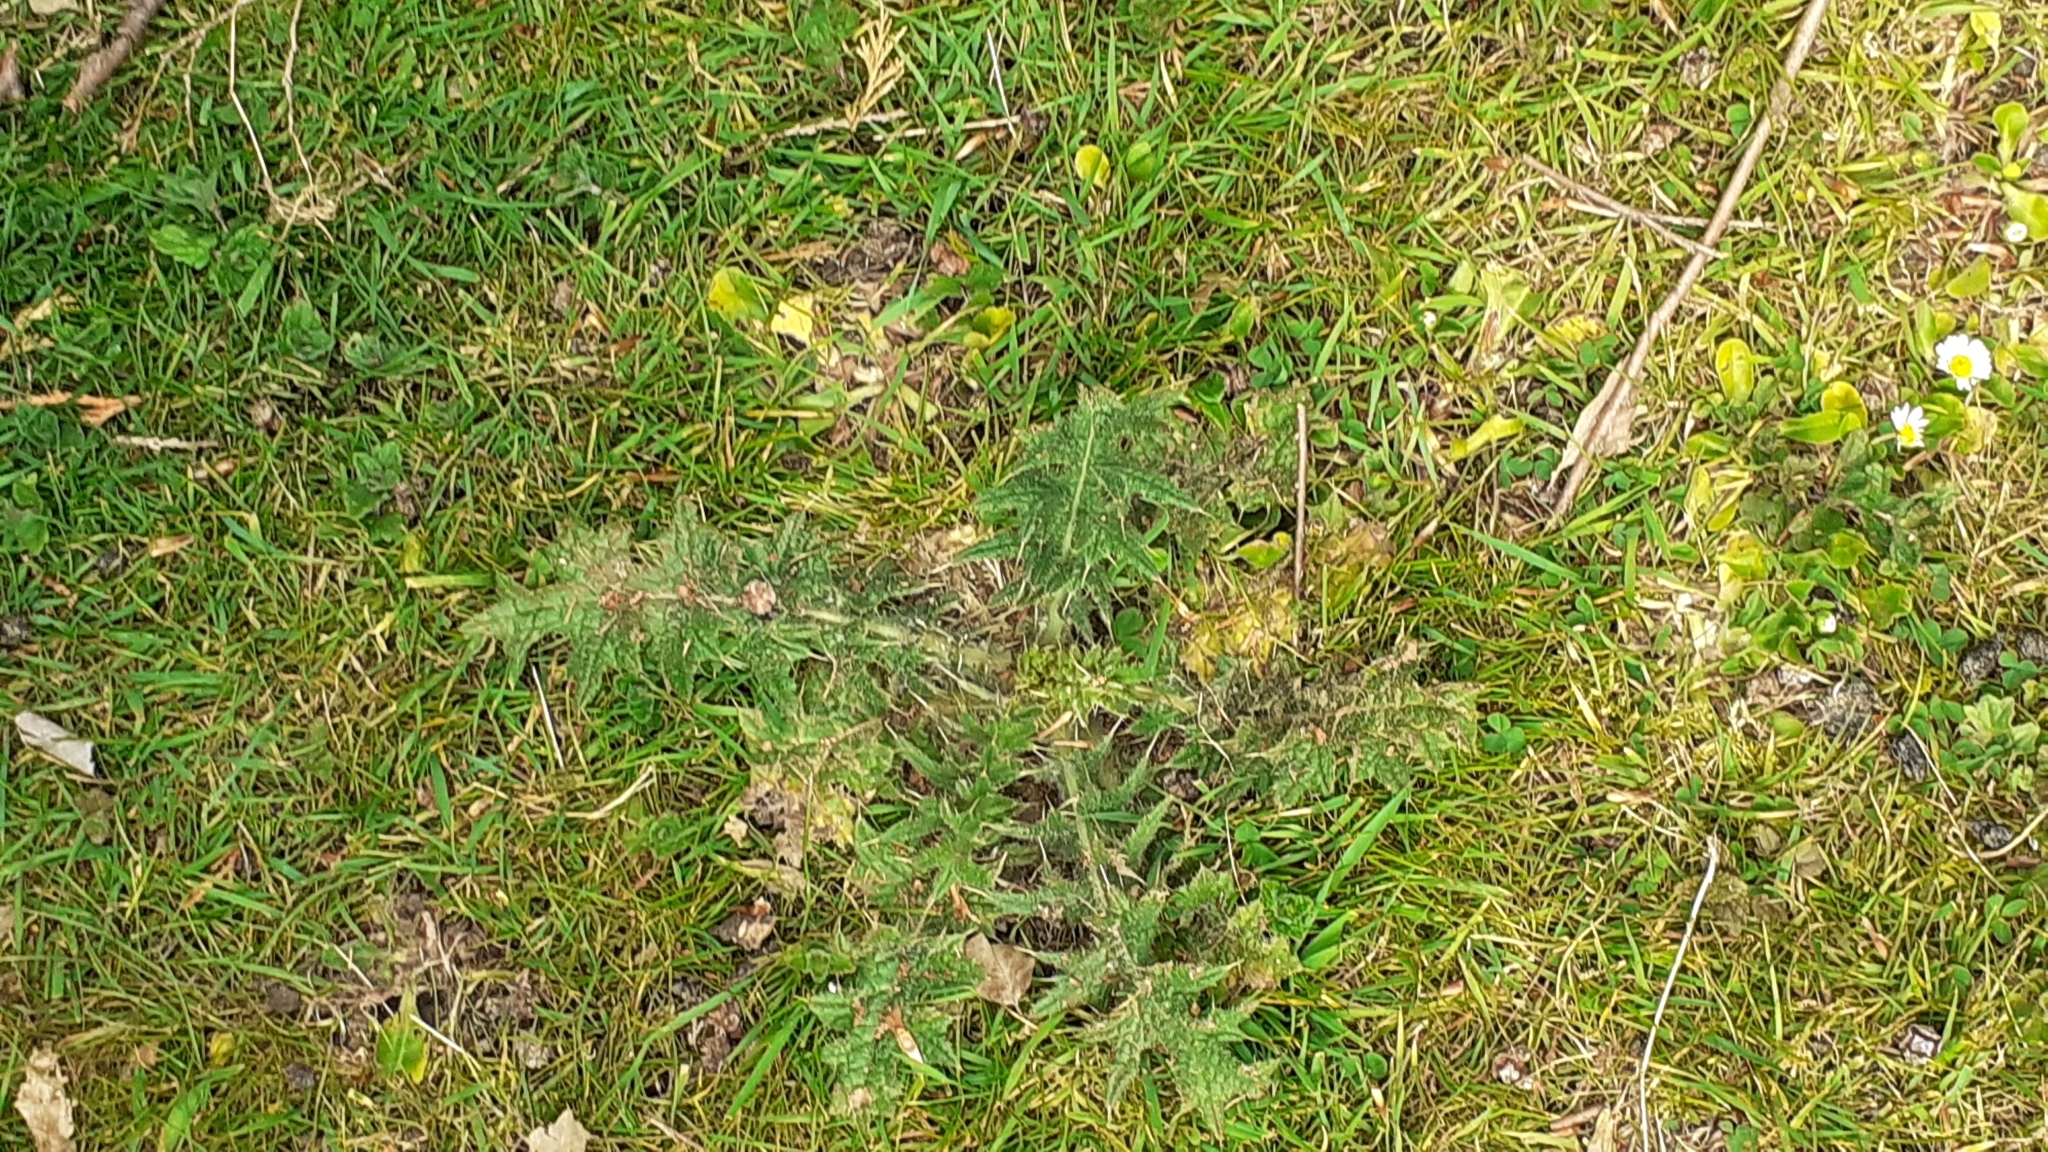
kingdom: Plantae
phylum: Tracheophyta
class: Magnoliopsida
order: Asterales
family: Asteraceae
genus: Cirsium
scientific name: Cirsium vulgare
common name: Bull thistle
